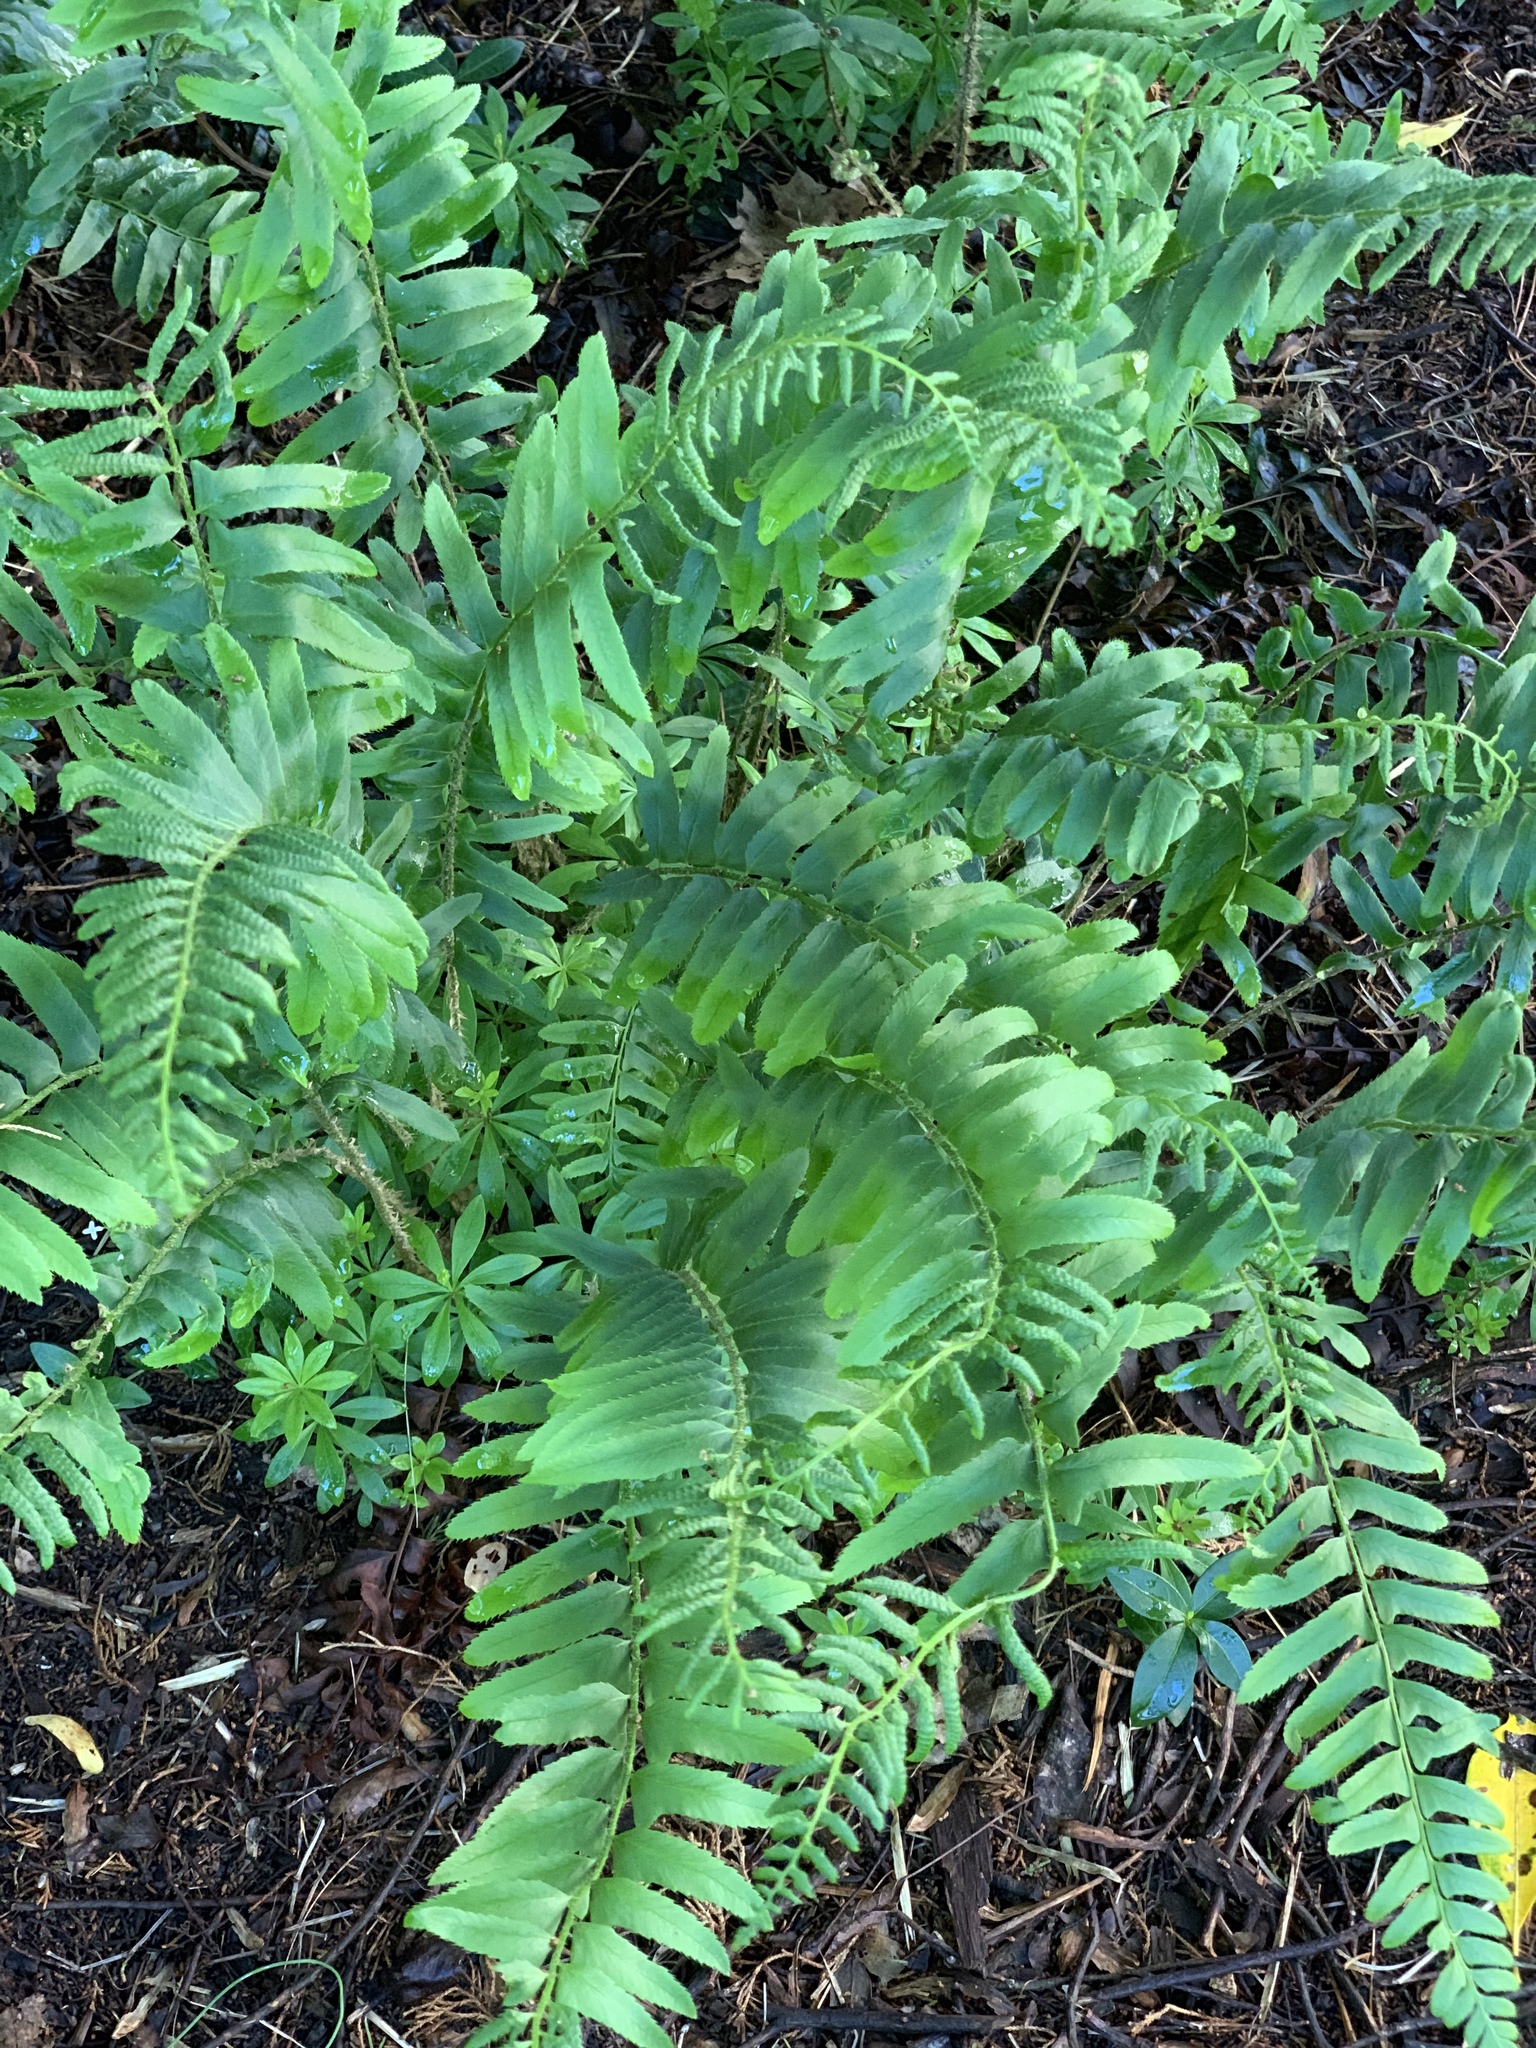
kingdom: Plantae
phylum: Tracheophyta
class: Polypodiopsida
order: Polypodiales
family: Dryopteridaceae
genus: Polystichum
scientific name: Polystichum acrostichoides
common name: Christmas fern
